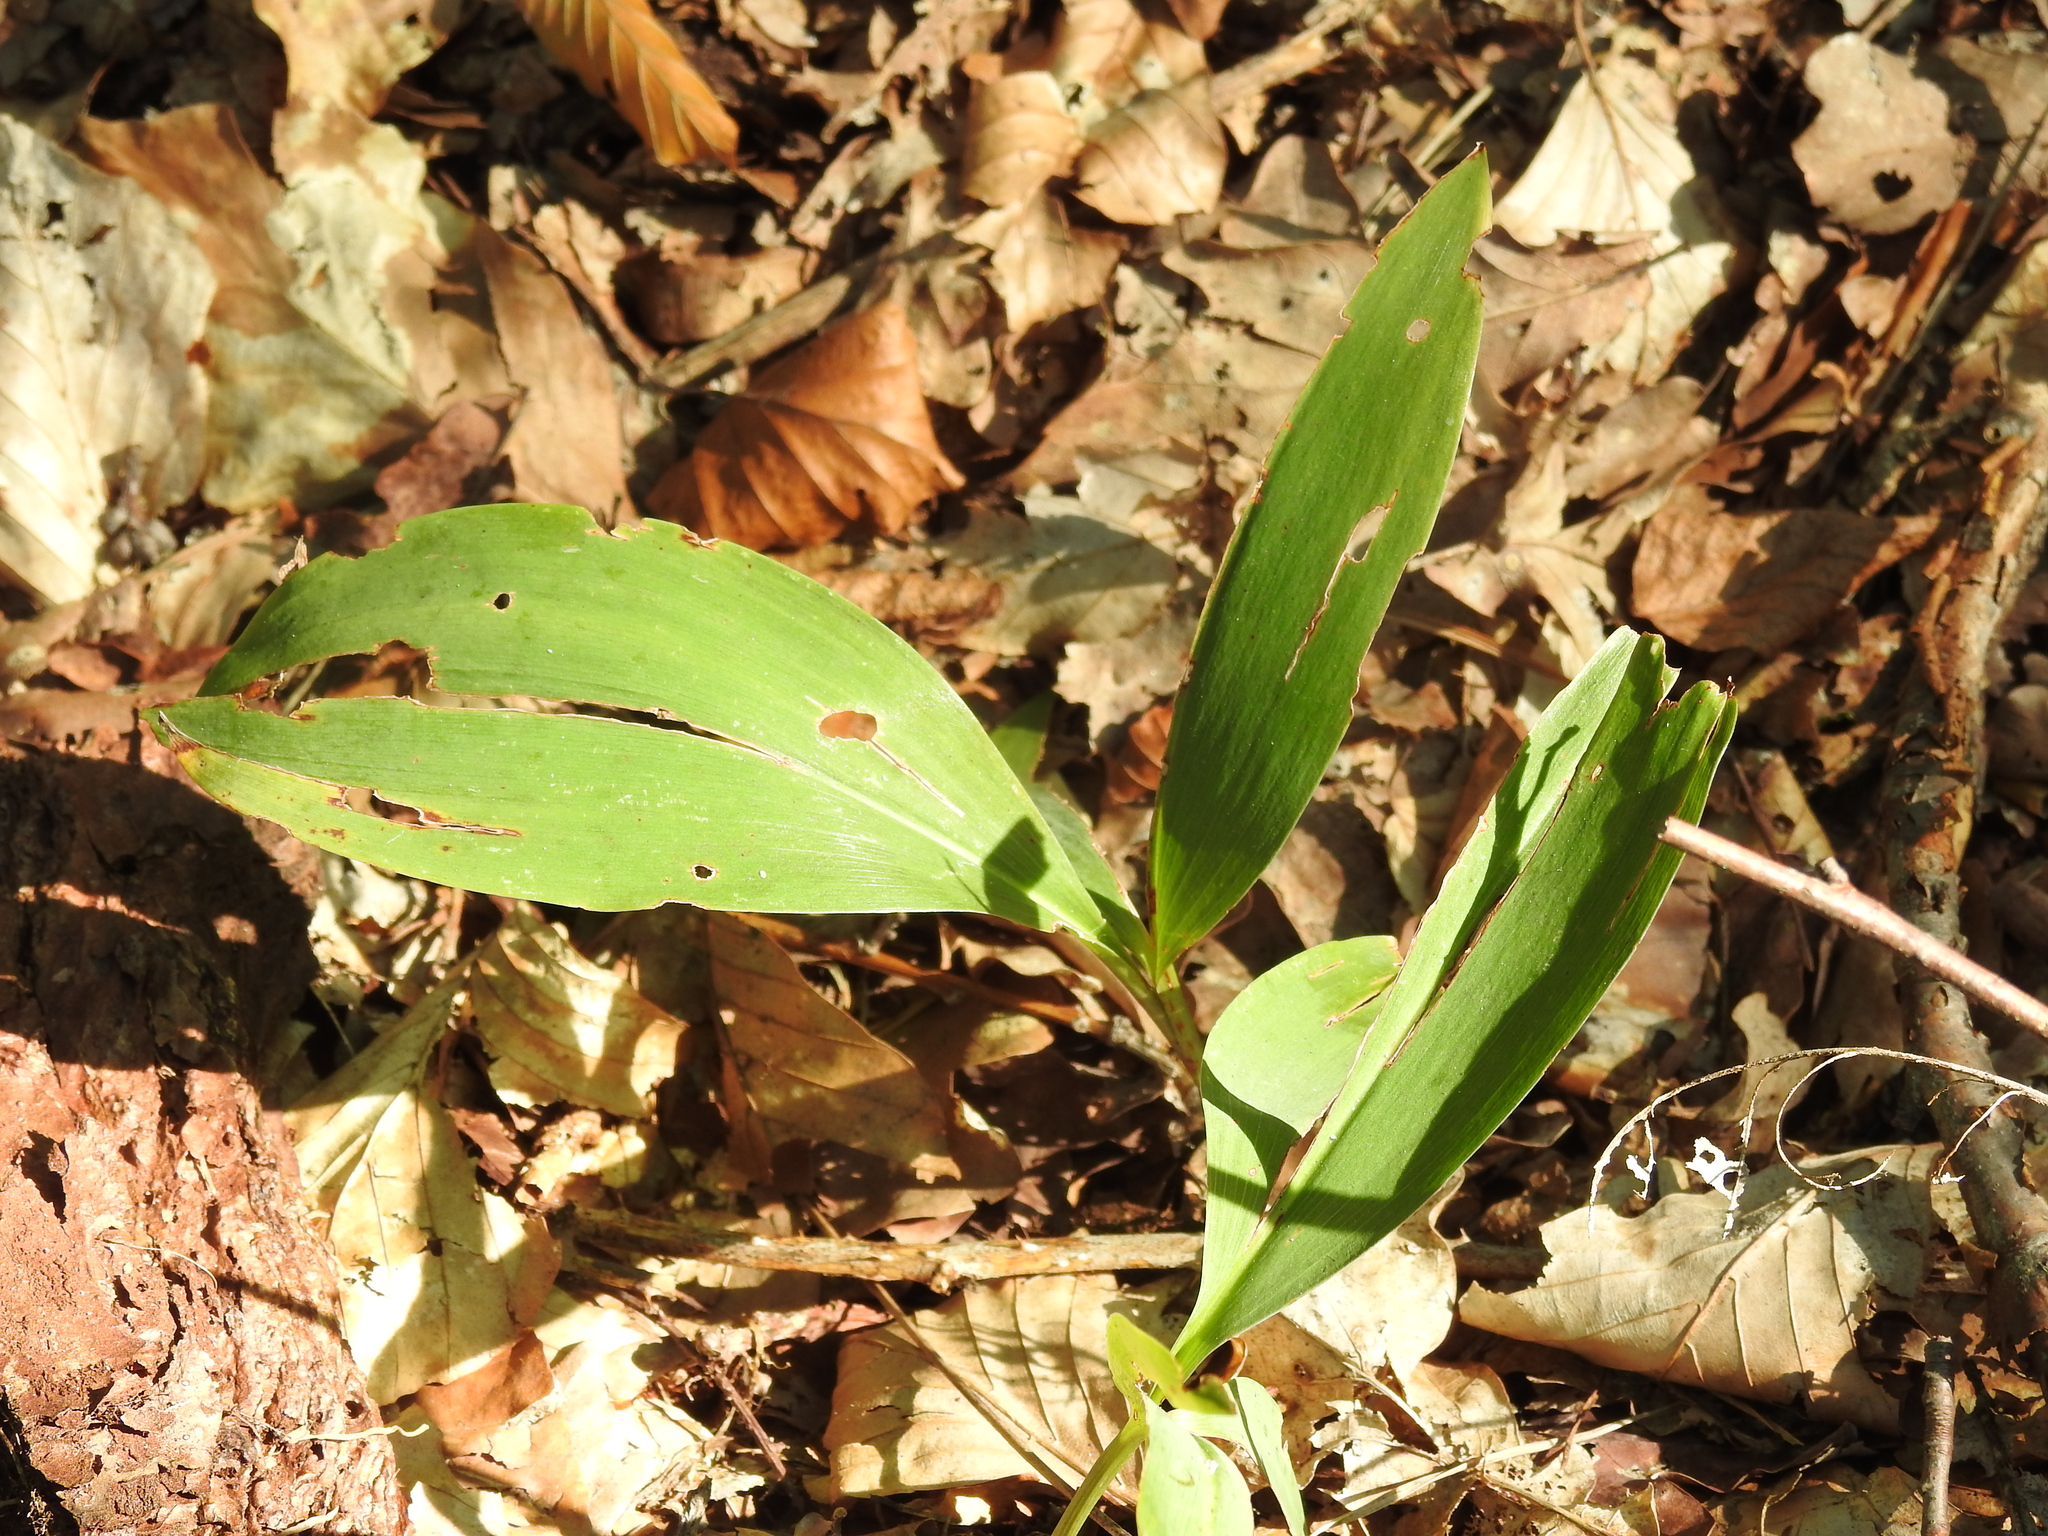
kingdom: Plantae
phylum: Tracheophyta
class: Liliopsida
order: Asparagales
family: Asparagaceae
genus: Convallaria
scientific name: Convallaria majalis
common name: Lily-of-the-valley
